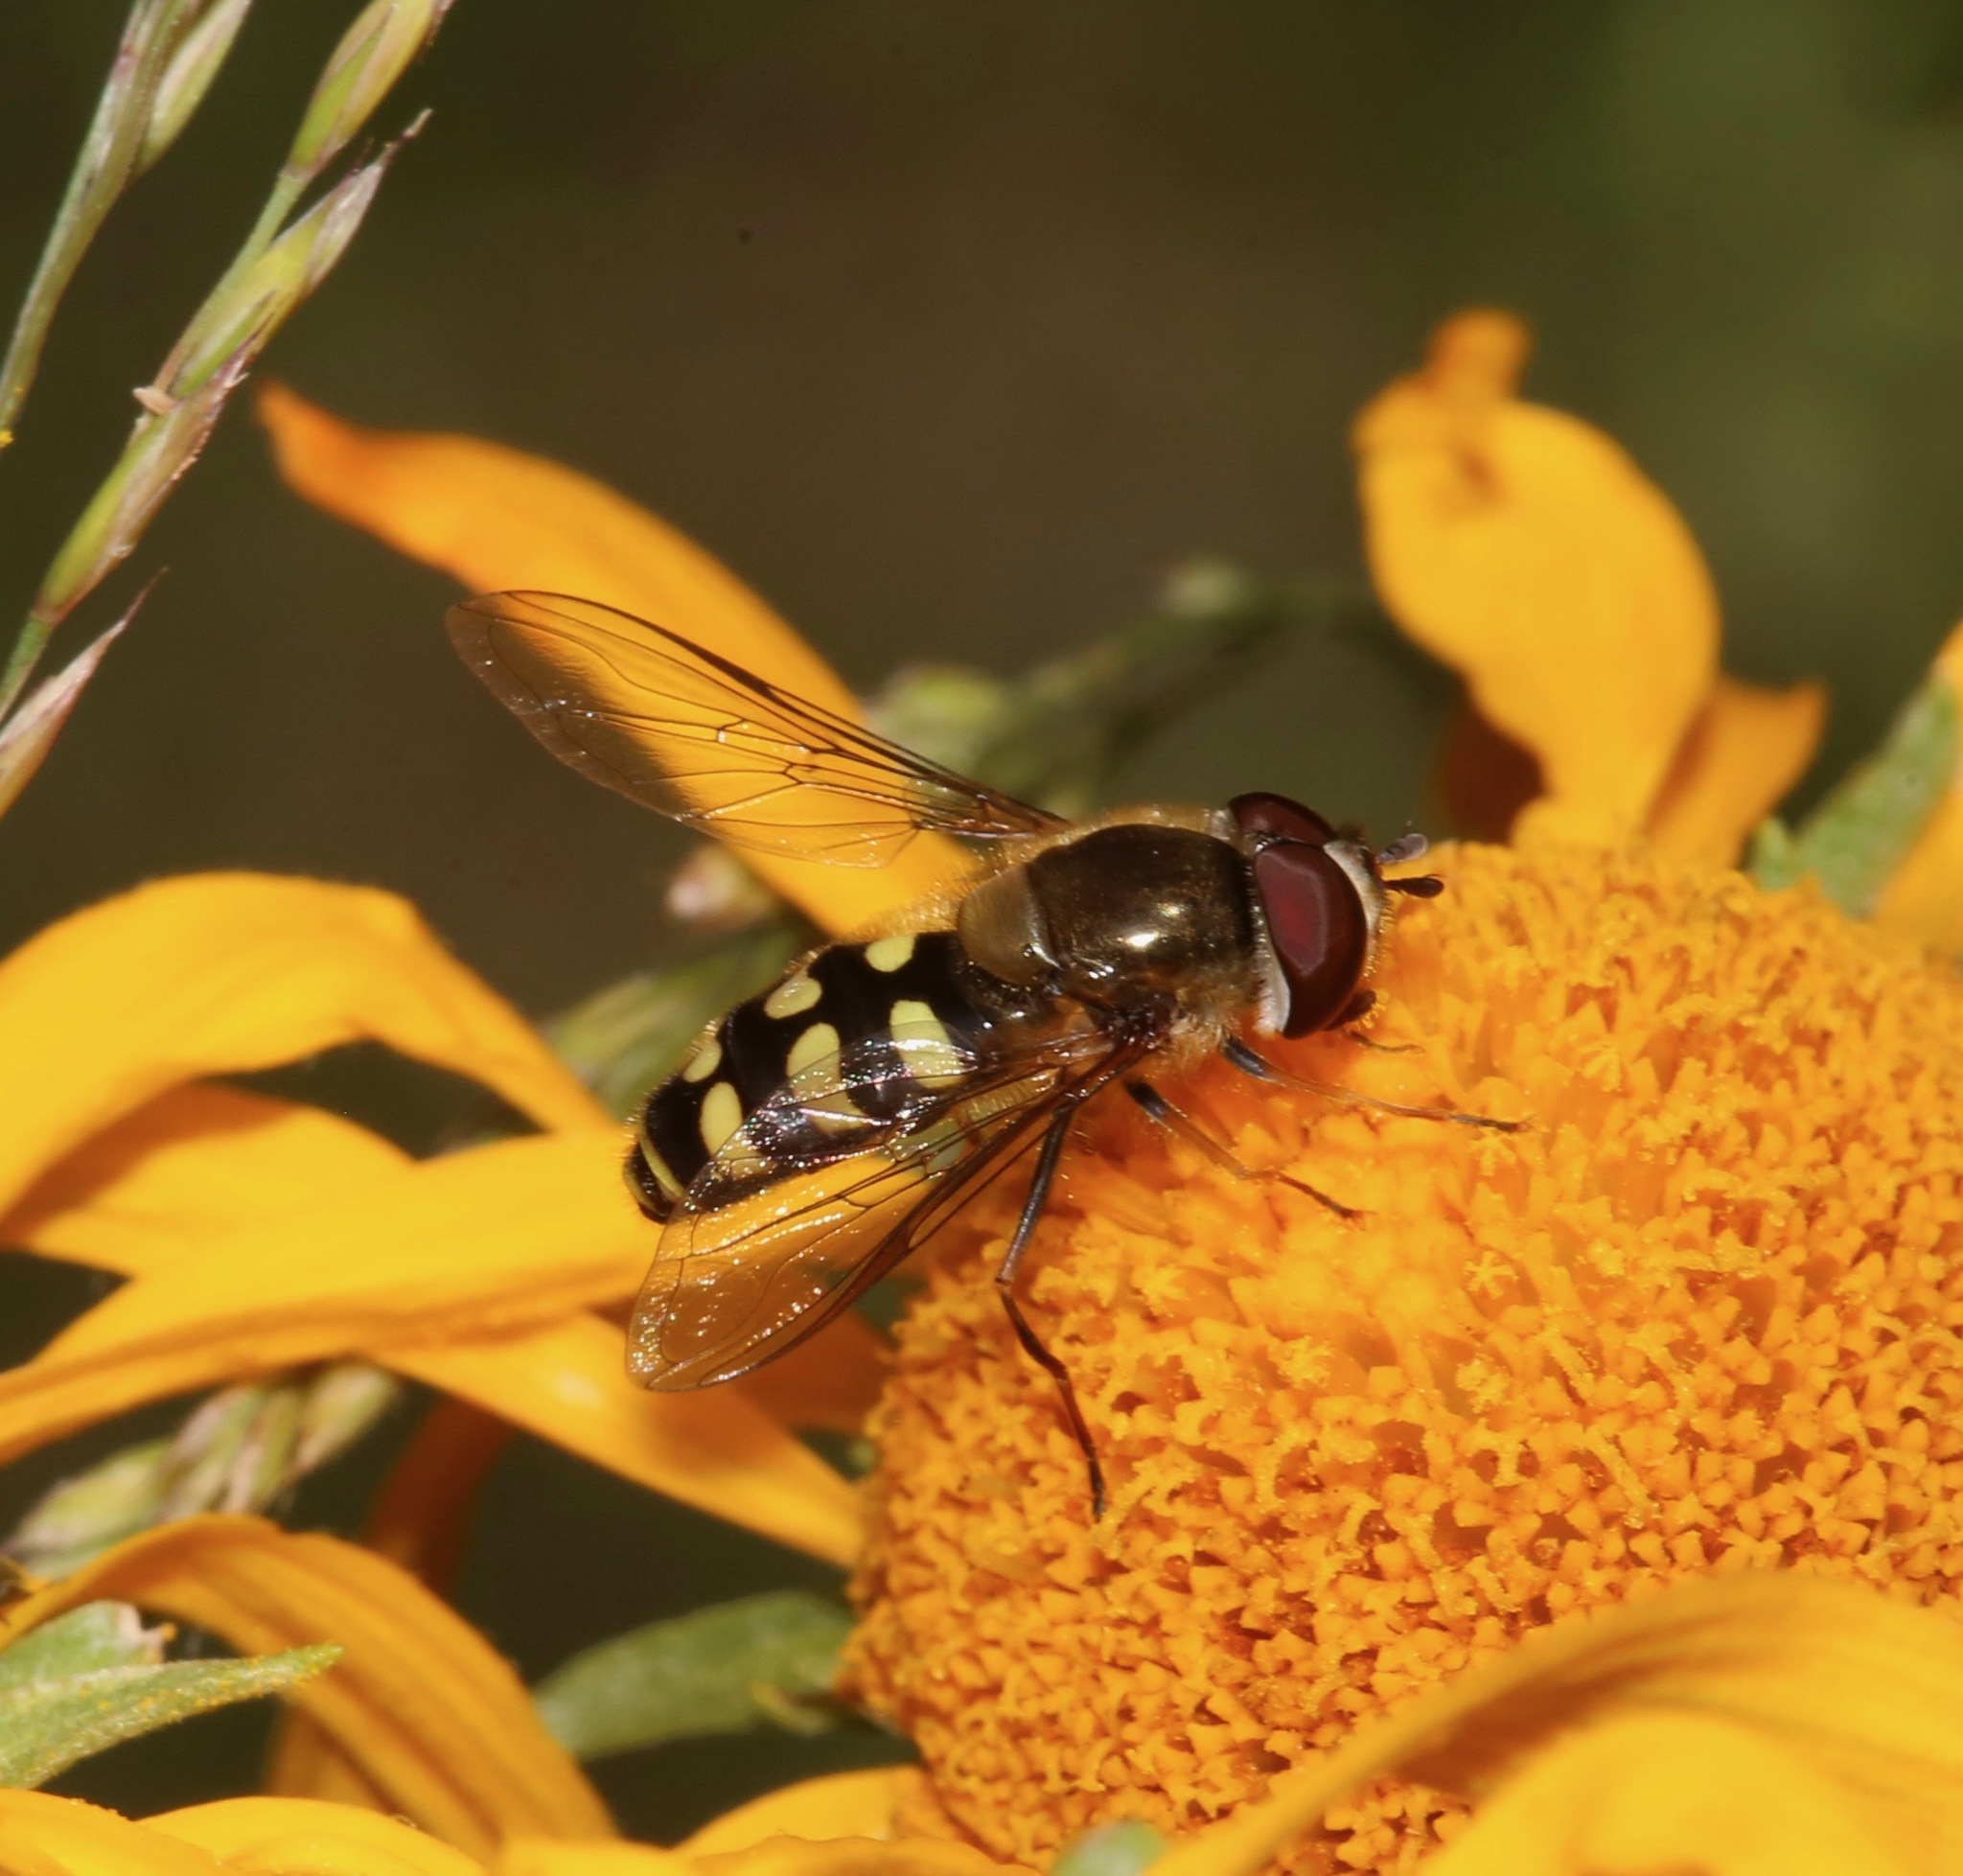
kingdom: Animalia
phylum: Arthropoda
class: Insecta
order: Diptera
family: Syrphidae
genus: Lapposyrphus
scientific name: Lapposyrphus lapponicus
